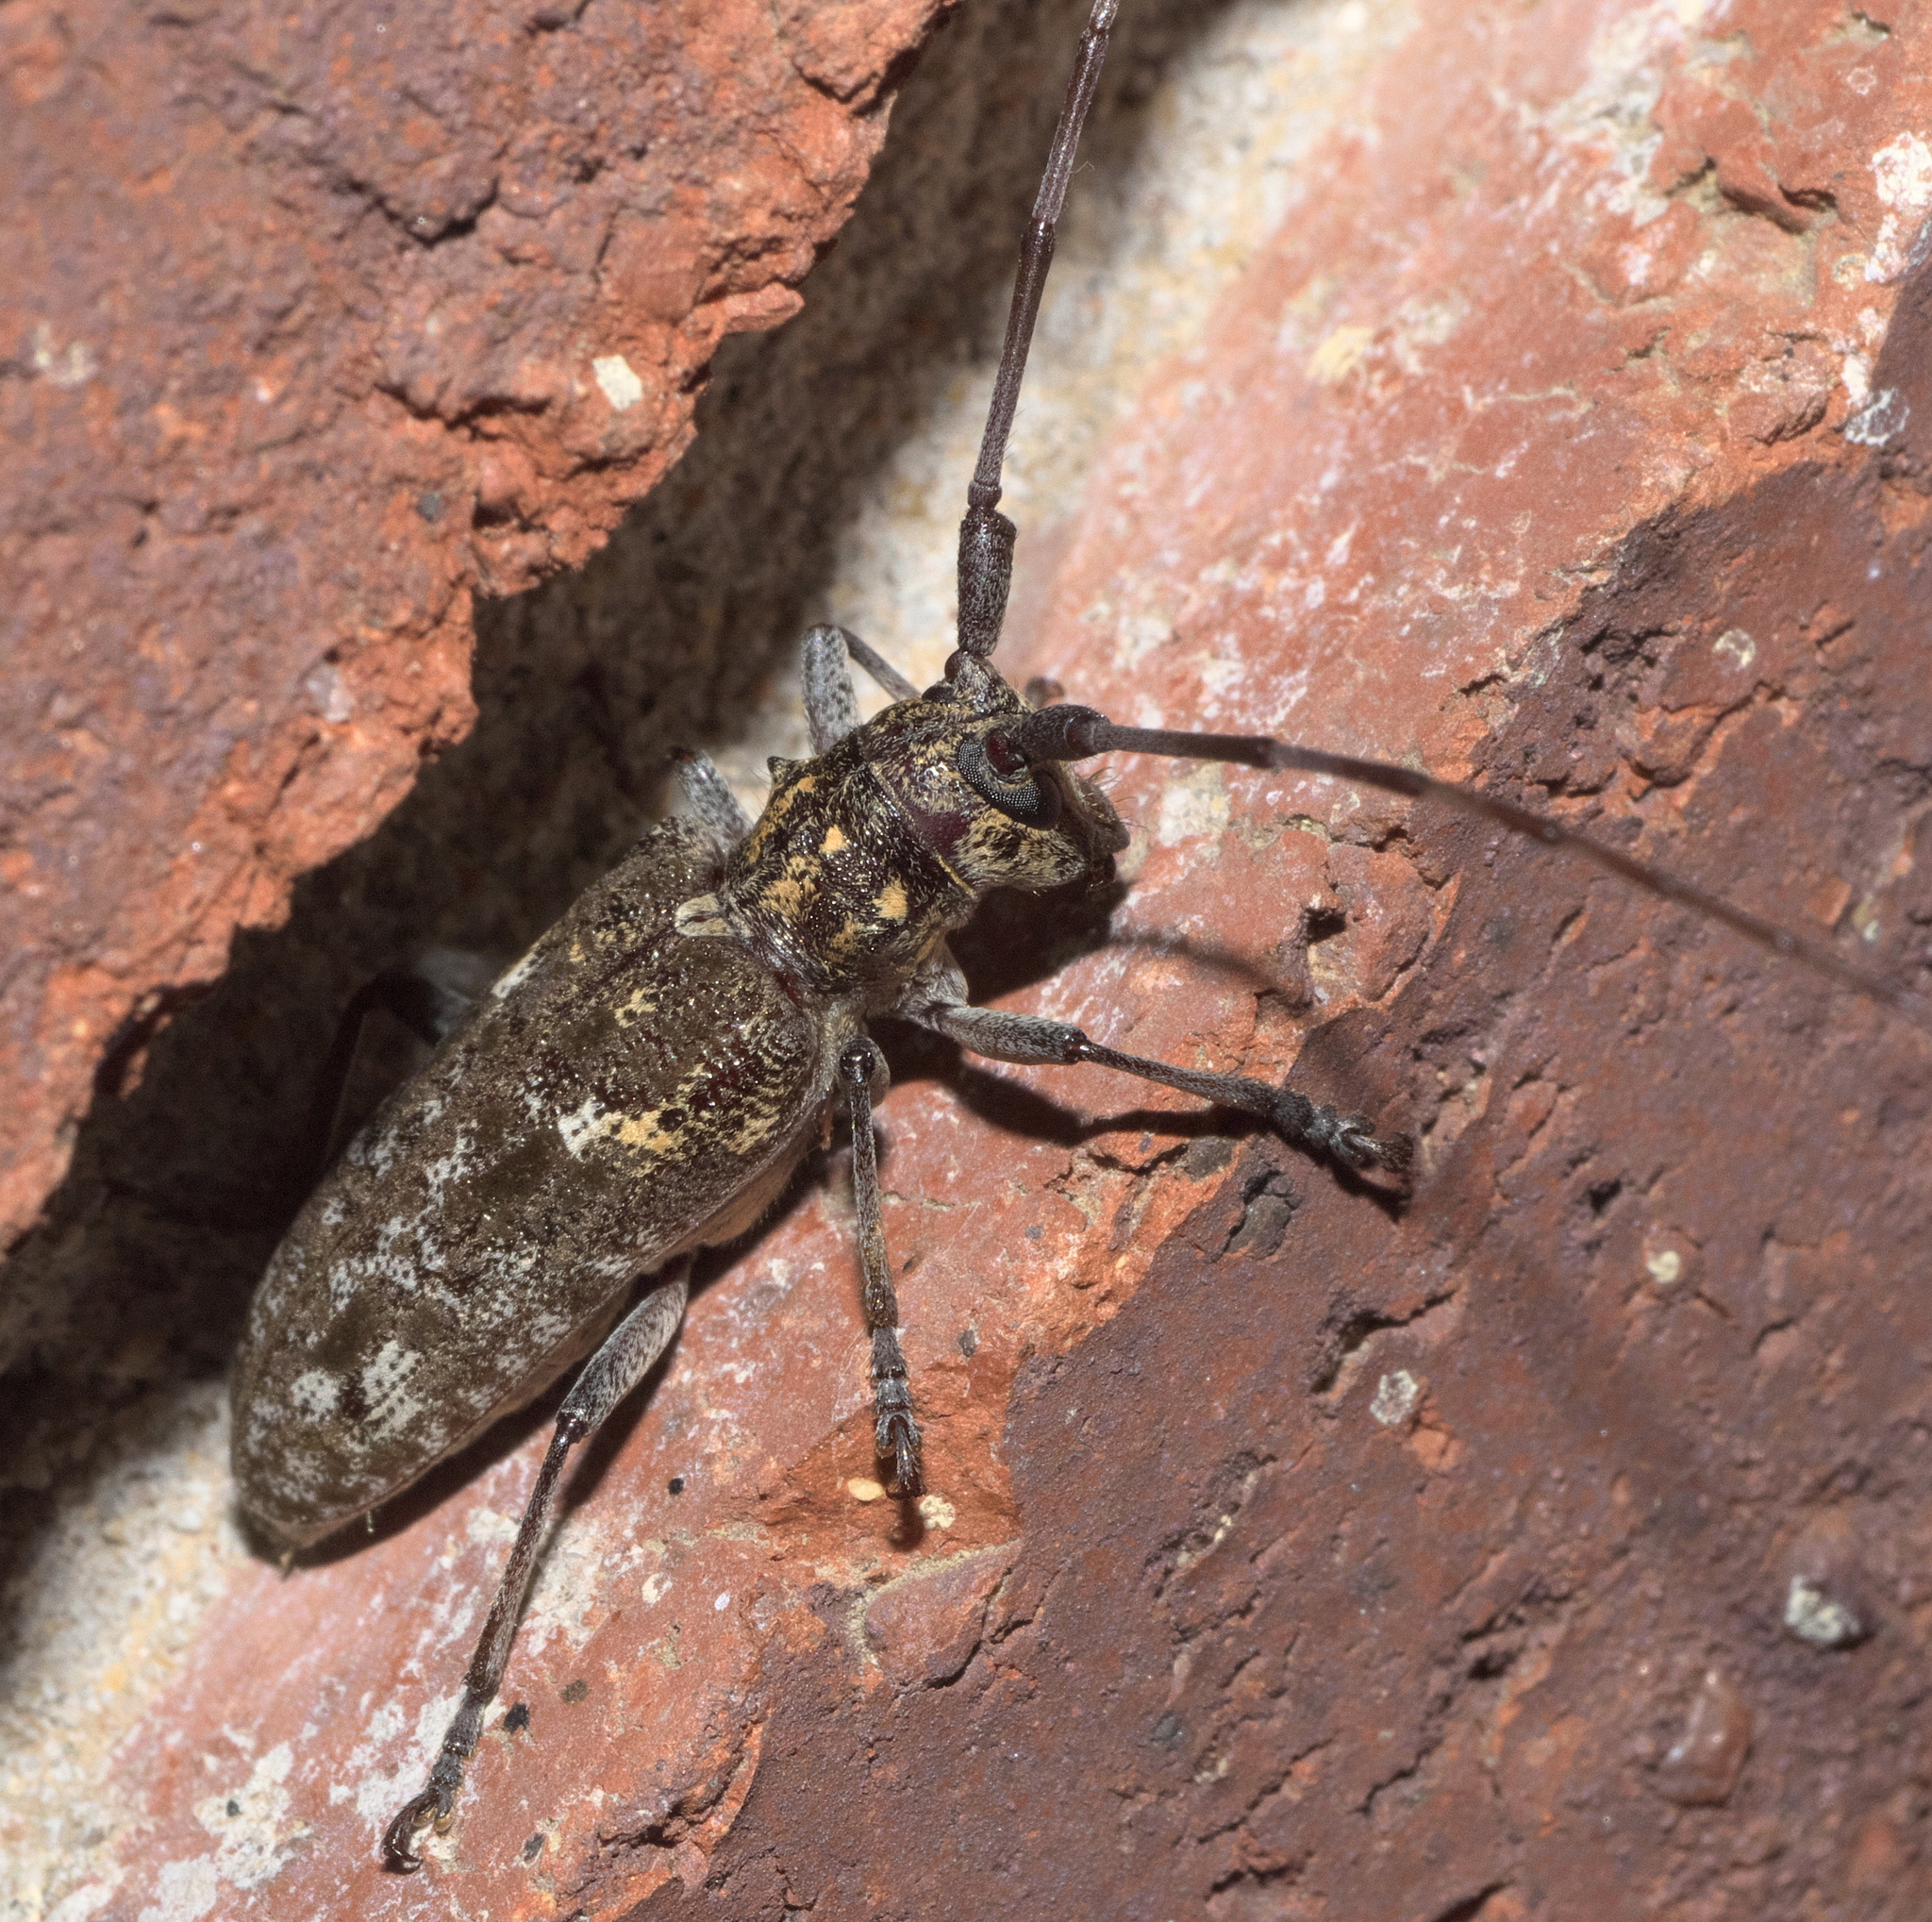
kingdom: Animalia
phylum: Arthropoda
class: Insecta
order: Coleoptera
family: Cerambycidae
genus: Monochamus
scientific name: Monochamus carolinensis
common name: Carolina pine sawyer
